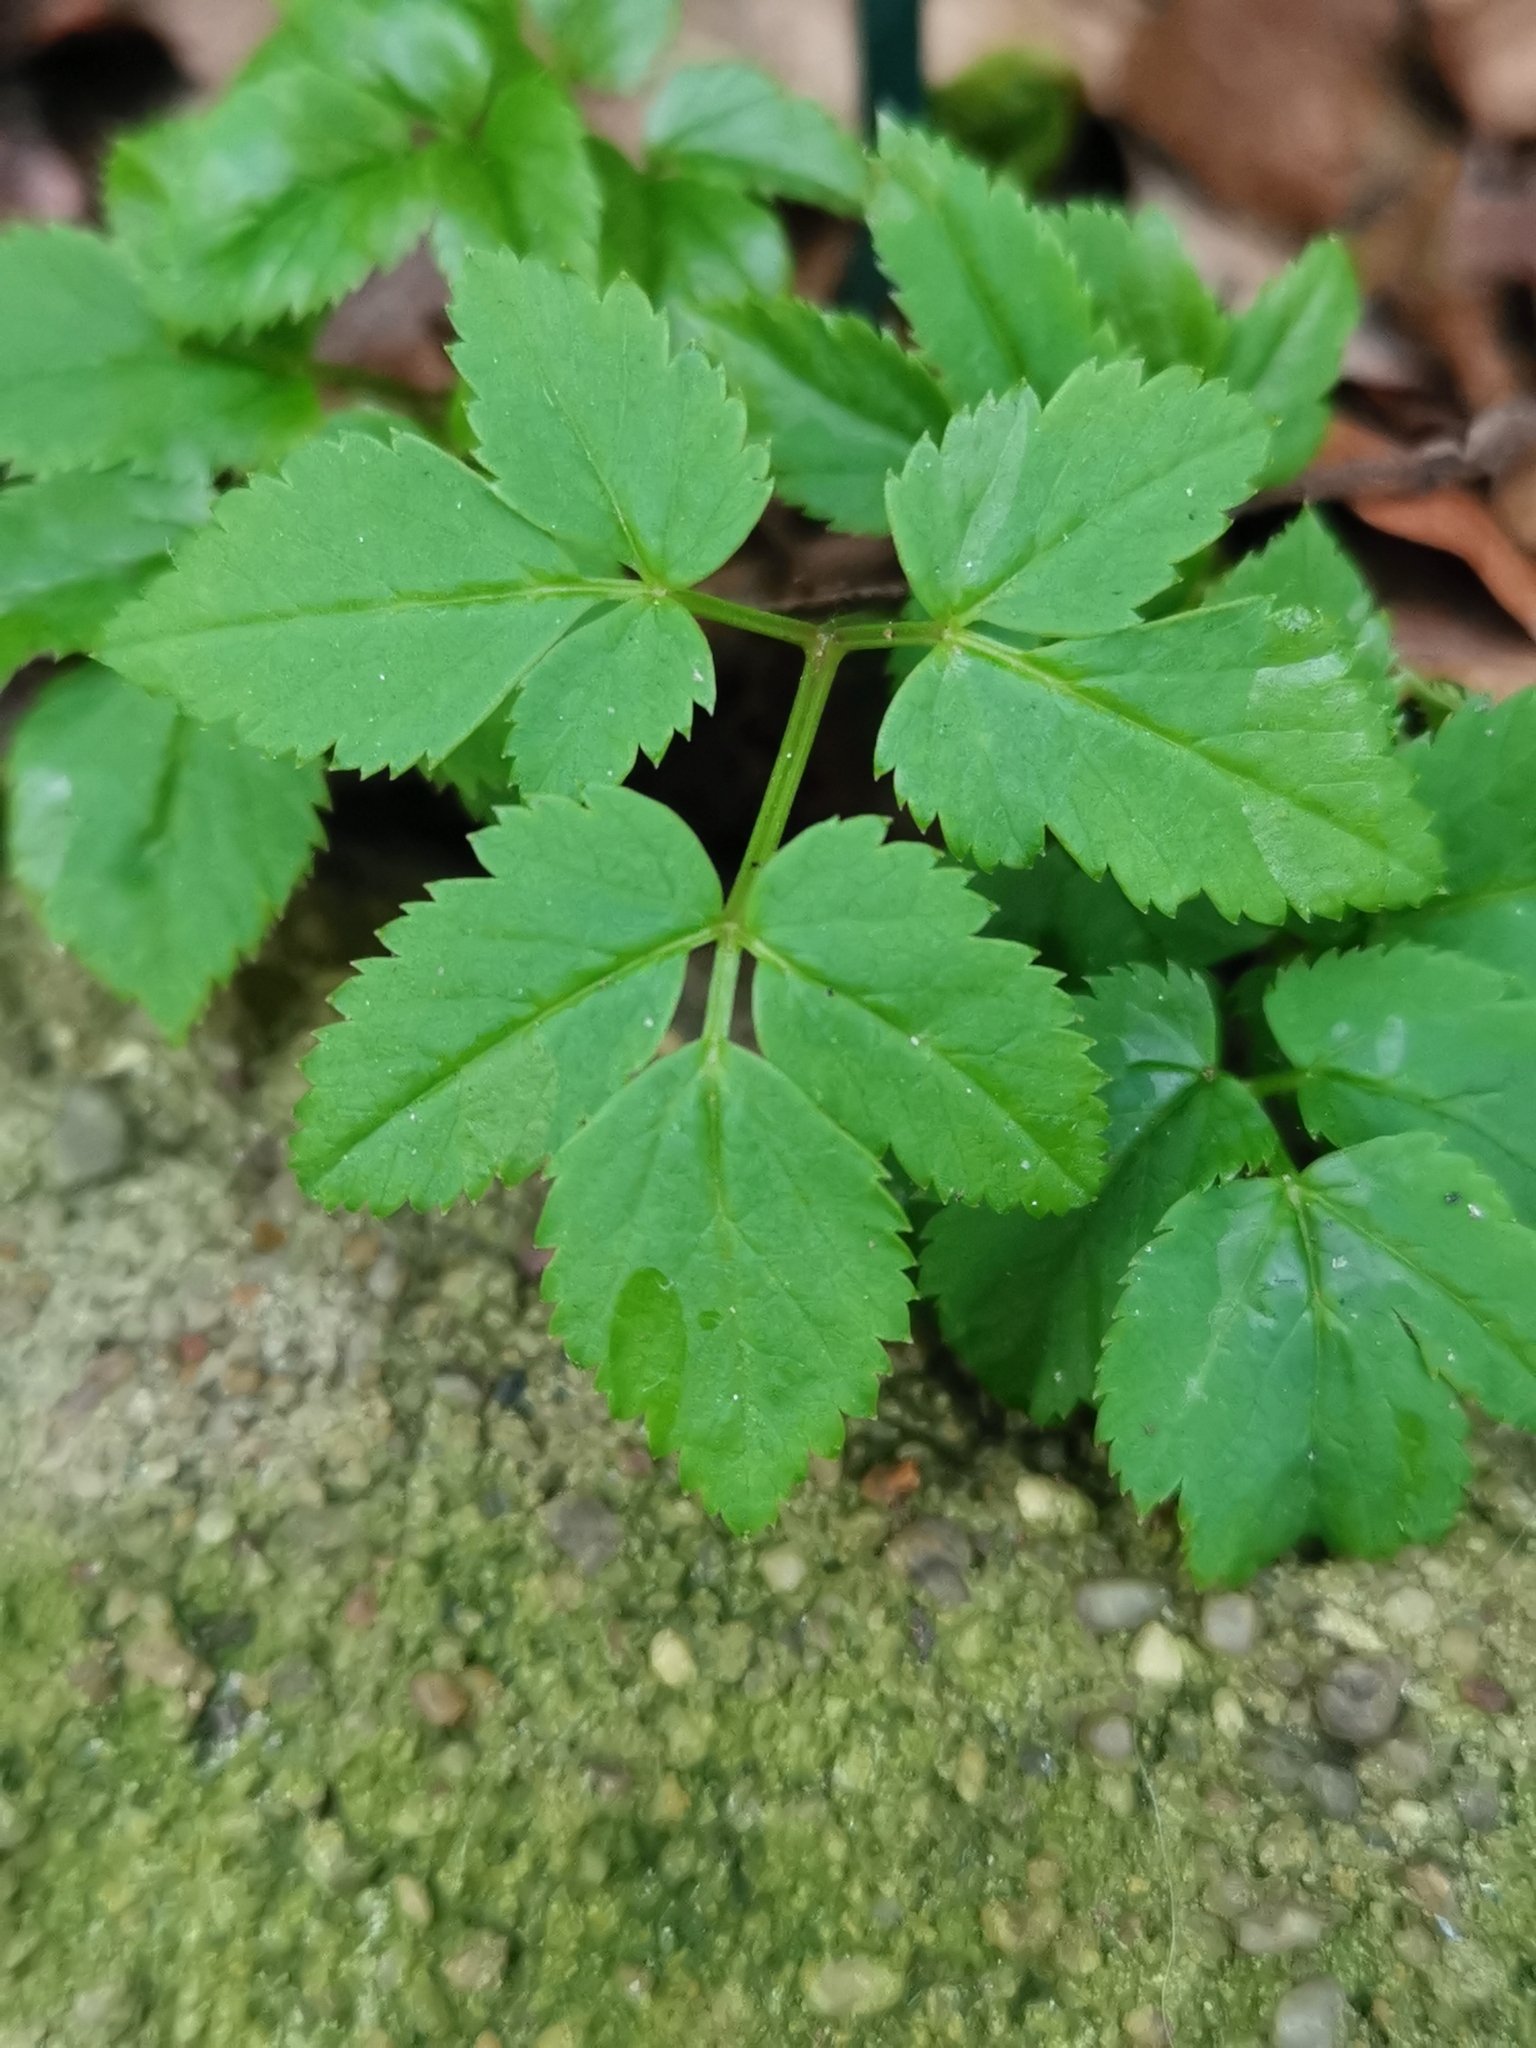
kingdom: Plantae
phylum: Tracheophyta
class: Magnoliopsida
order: Apiales
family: Apiaceae
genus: Aegopodium
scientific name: Aegopodium podagraria
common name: Ground-elder
